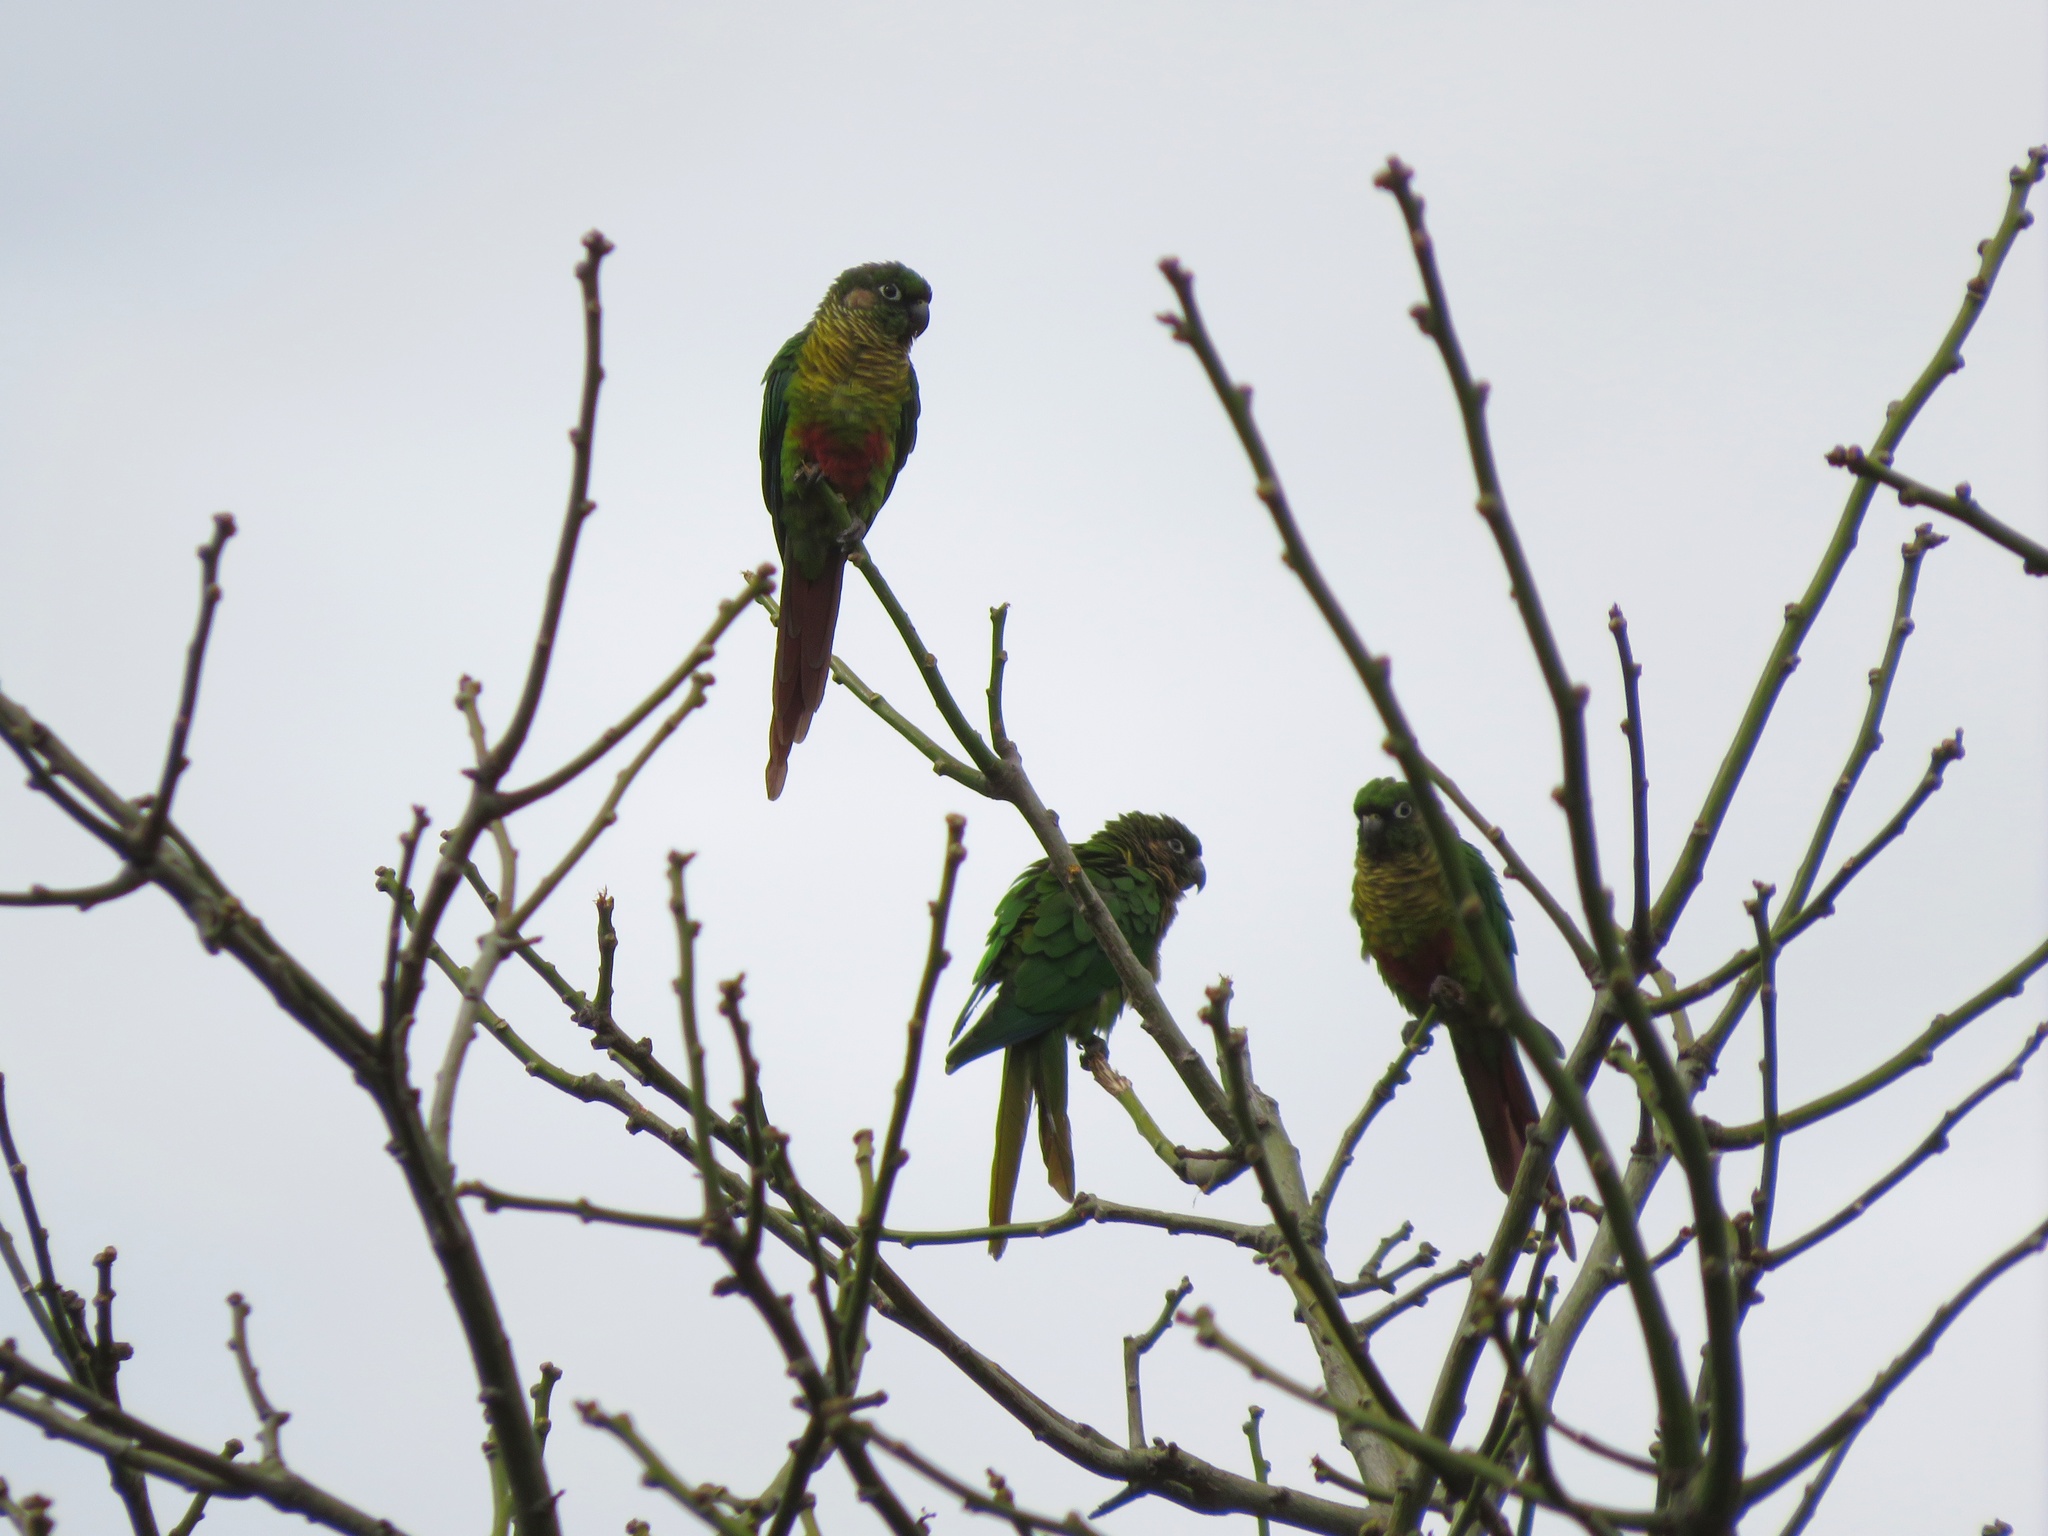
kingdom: Animalia
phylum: Chordata
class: Aves
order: Psittaciformes
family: Psittacidae
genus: Pyrrhura
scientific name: Pyrrhura frontalis
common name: Maroon-bellied parakeet
